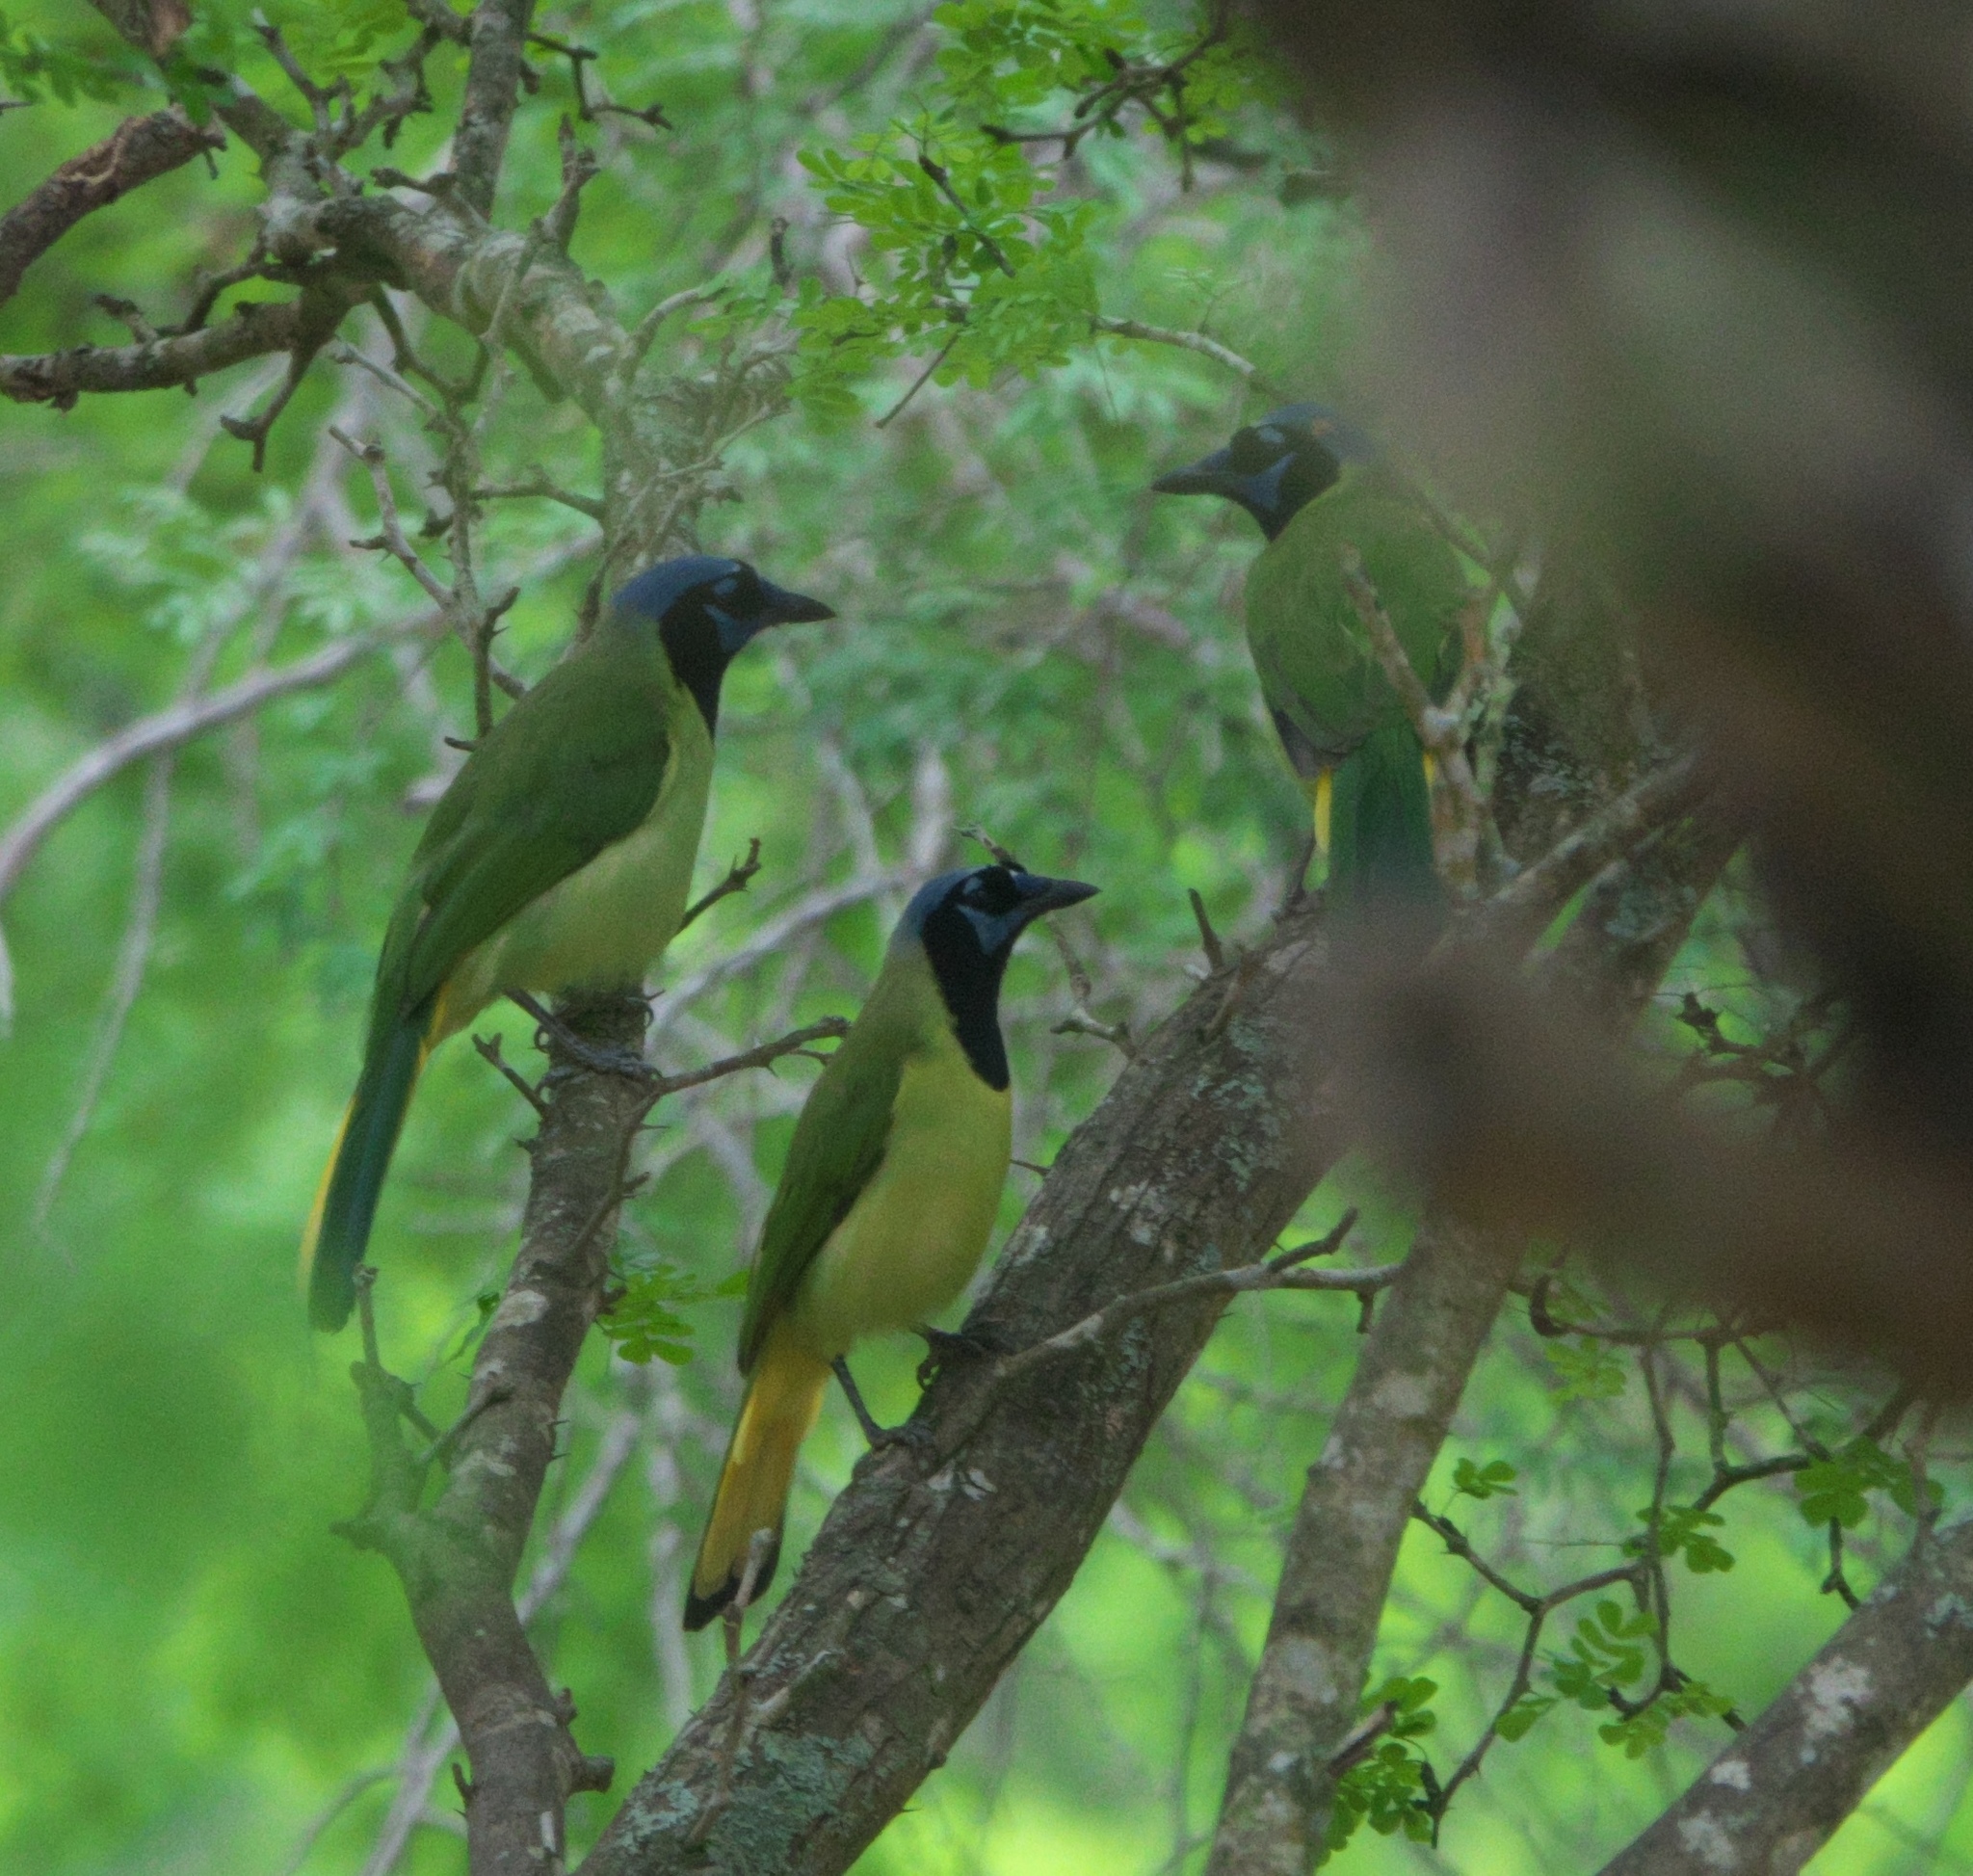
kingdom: Animalia
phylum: Chordata
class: Aves
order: Passeriformes
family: Corvidae
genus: Cyanocorax
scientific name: Cyanocorax yncas
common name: Green jay
